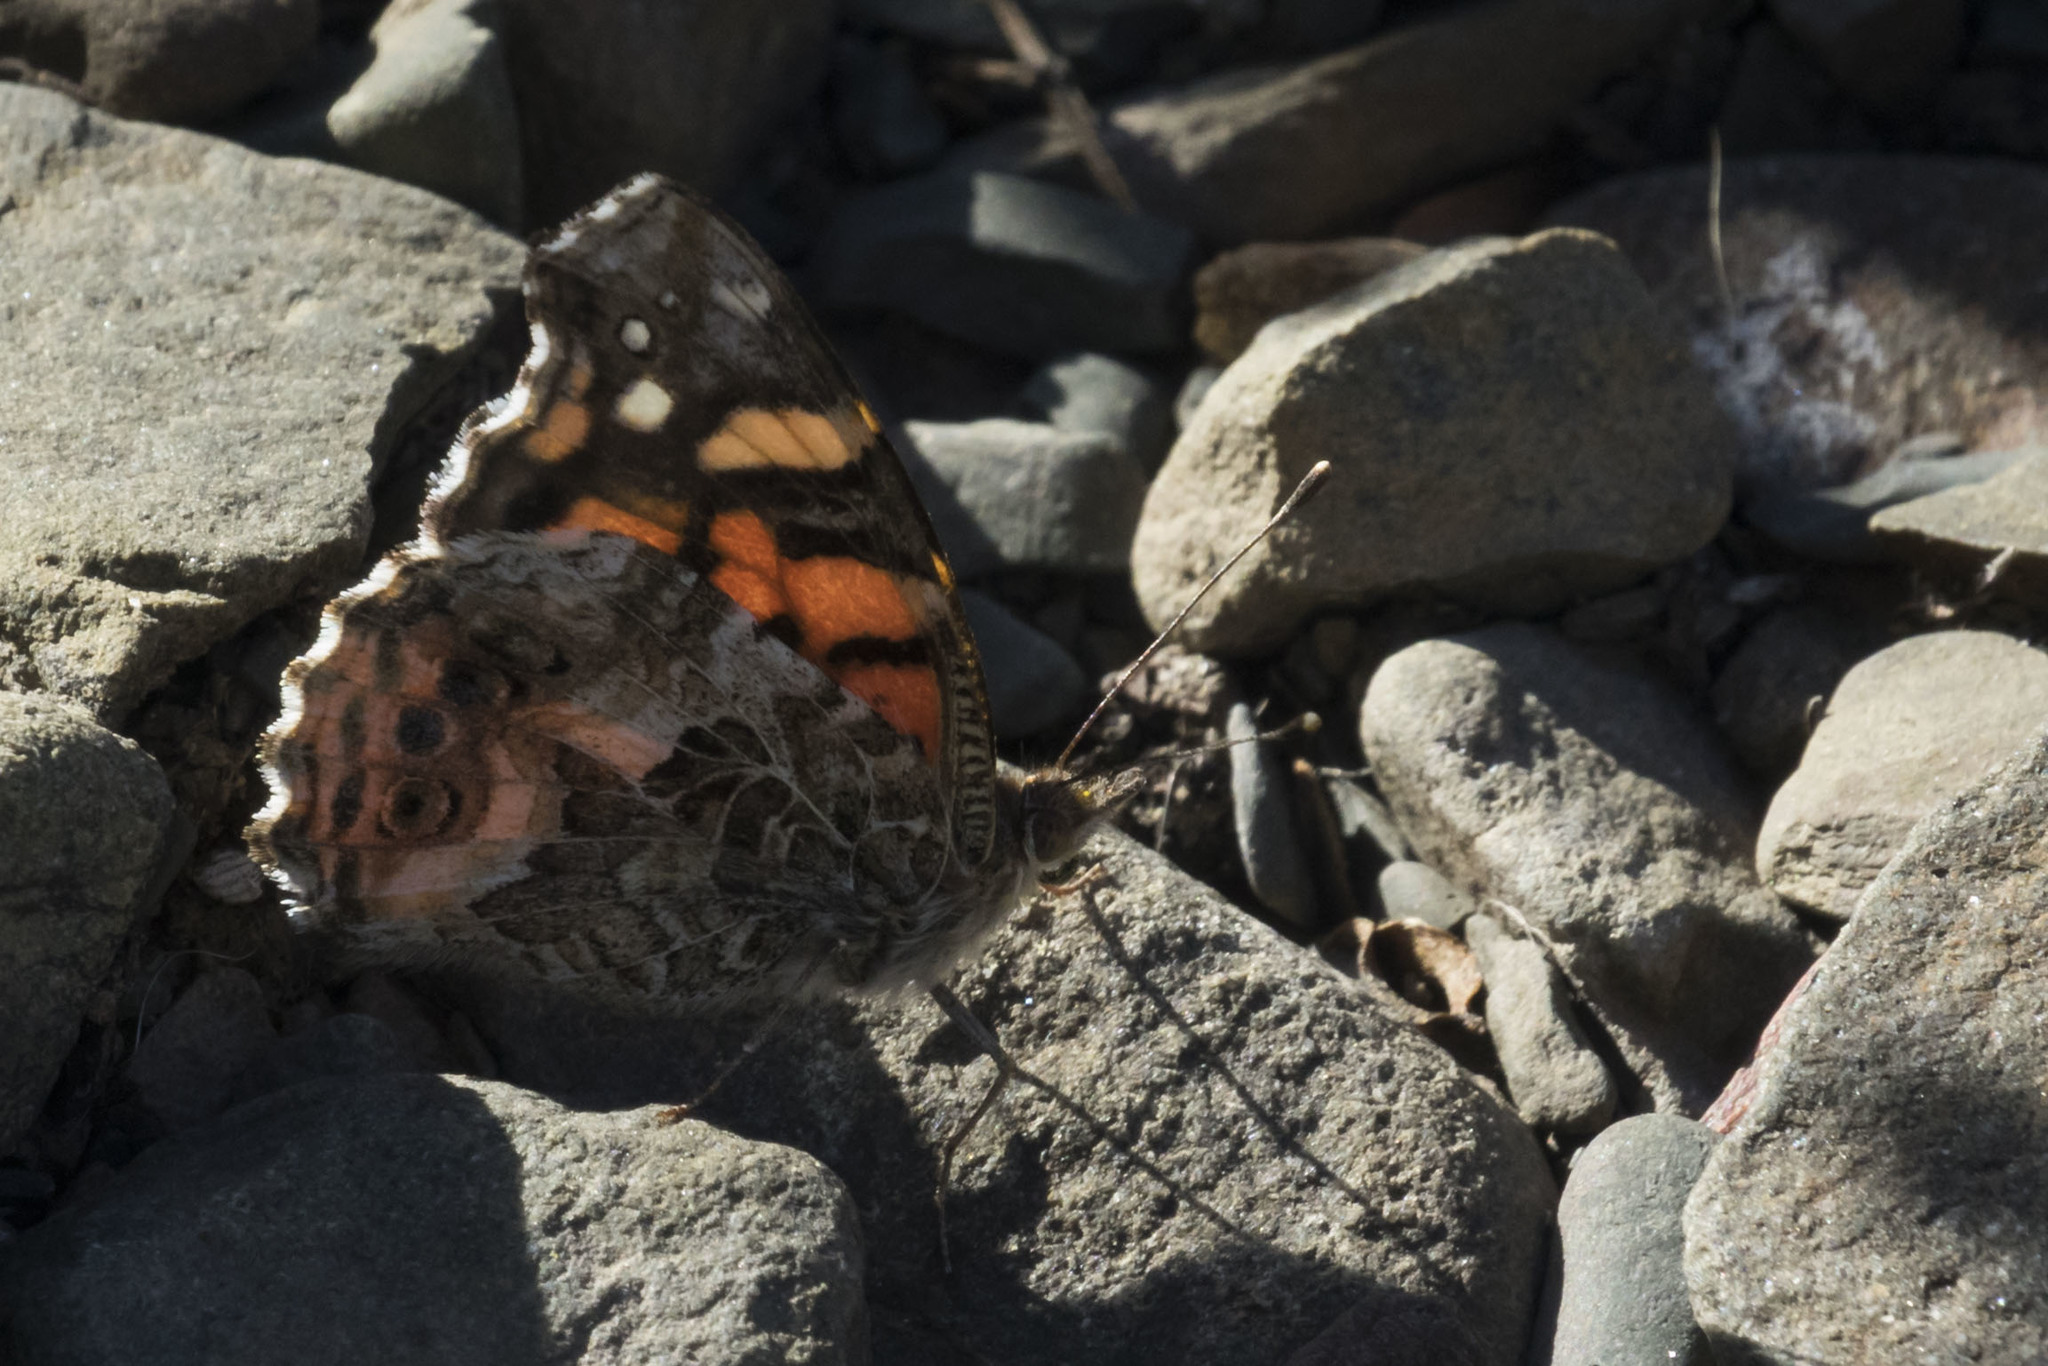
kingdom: Animalia
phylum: Arthropoda
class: Insecta
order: Lepidoptera
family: Nymphalidae
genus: Vanessa
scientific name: Vanessa carye
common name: Subtropical lady
